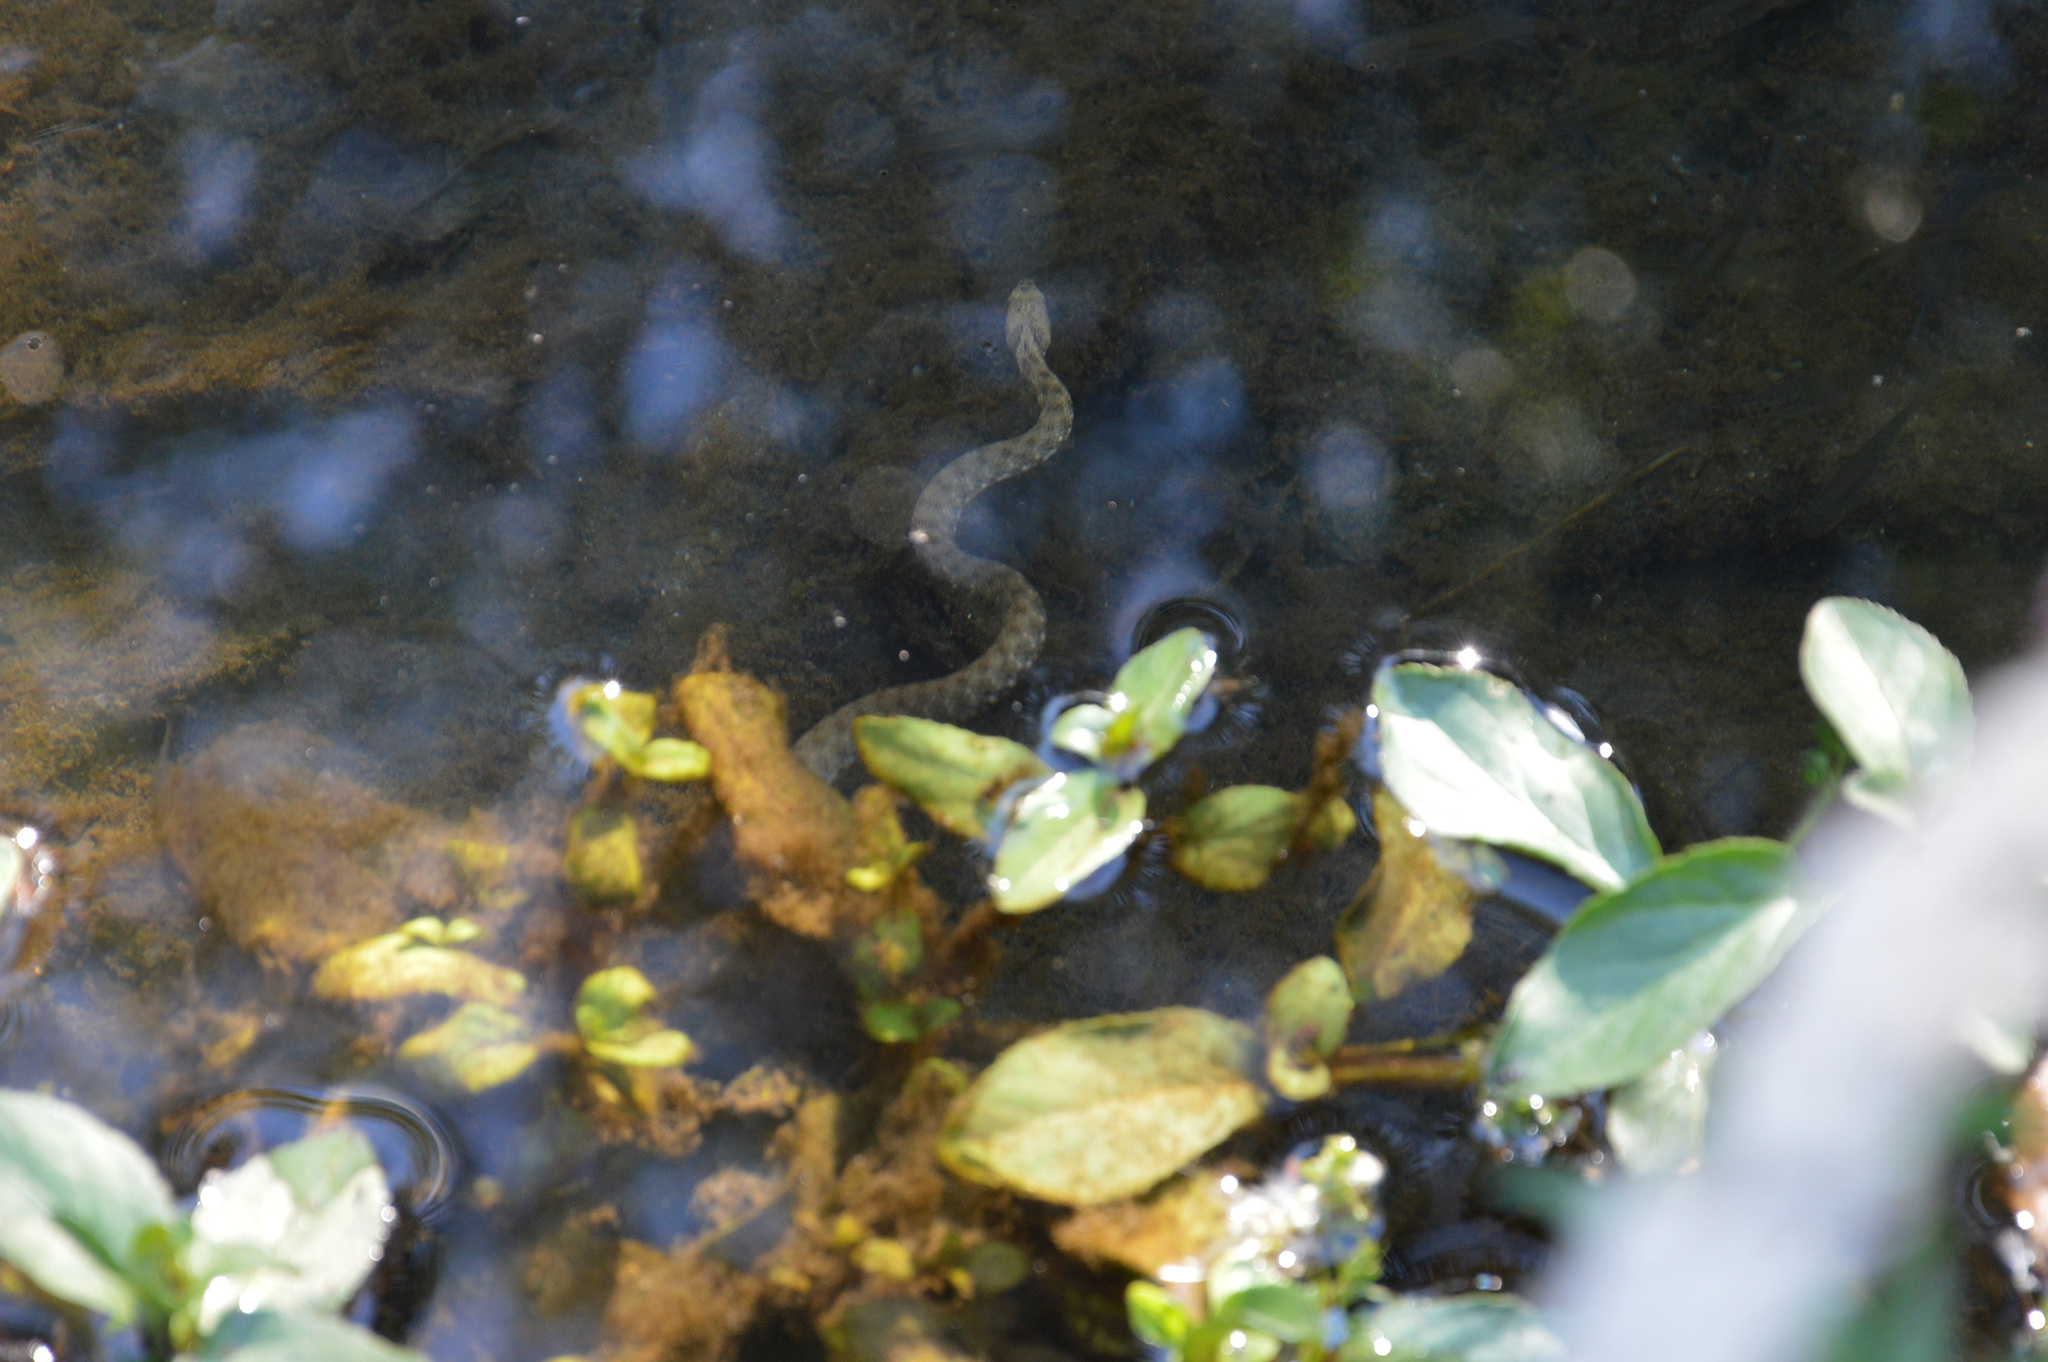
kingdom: Animalia
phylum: Chordata
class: Squamata
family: Colubridae
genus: Natrix
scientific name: Natrix tessellata
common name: Dice snake
